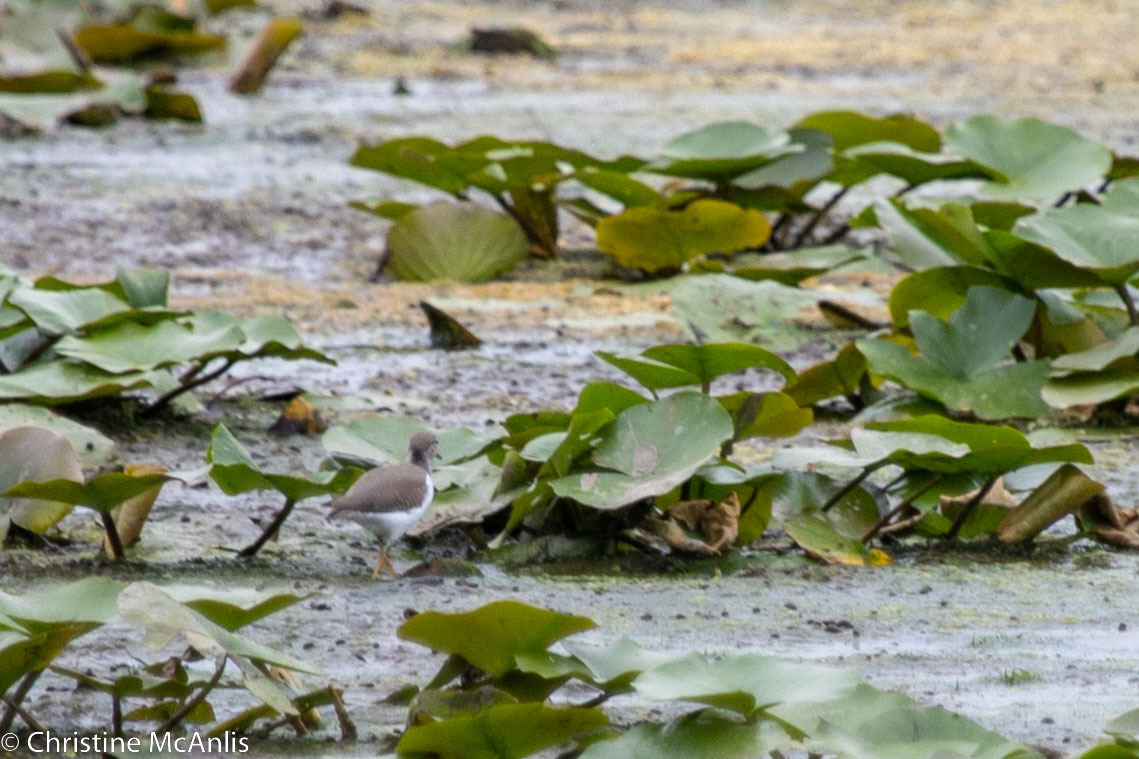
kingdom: Animalia
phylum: Chordata
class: Aves
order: Charadriiformes
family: Scolopacidae
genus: Actitis
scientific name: Actitis macularius
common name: Spotted sandpiper
